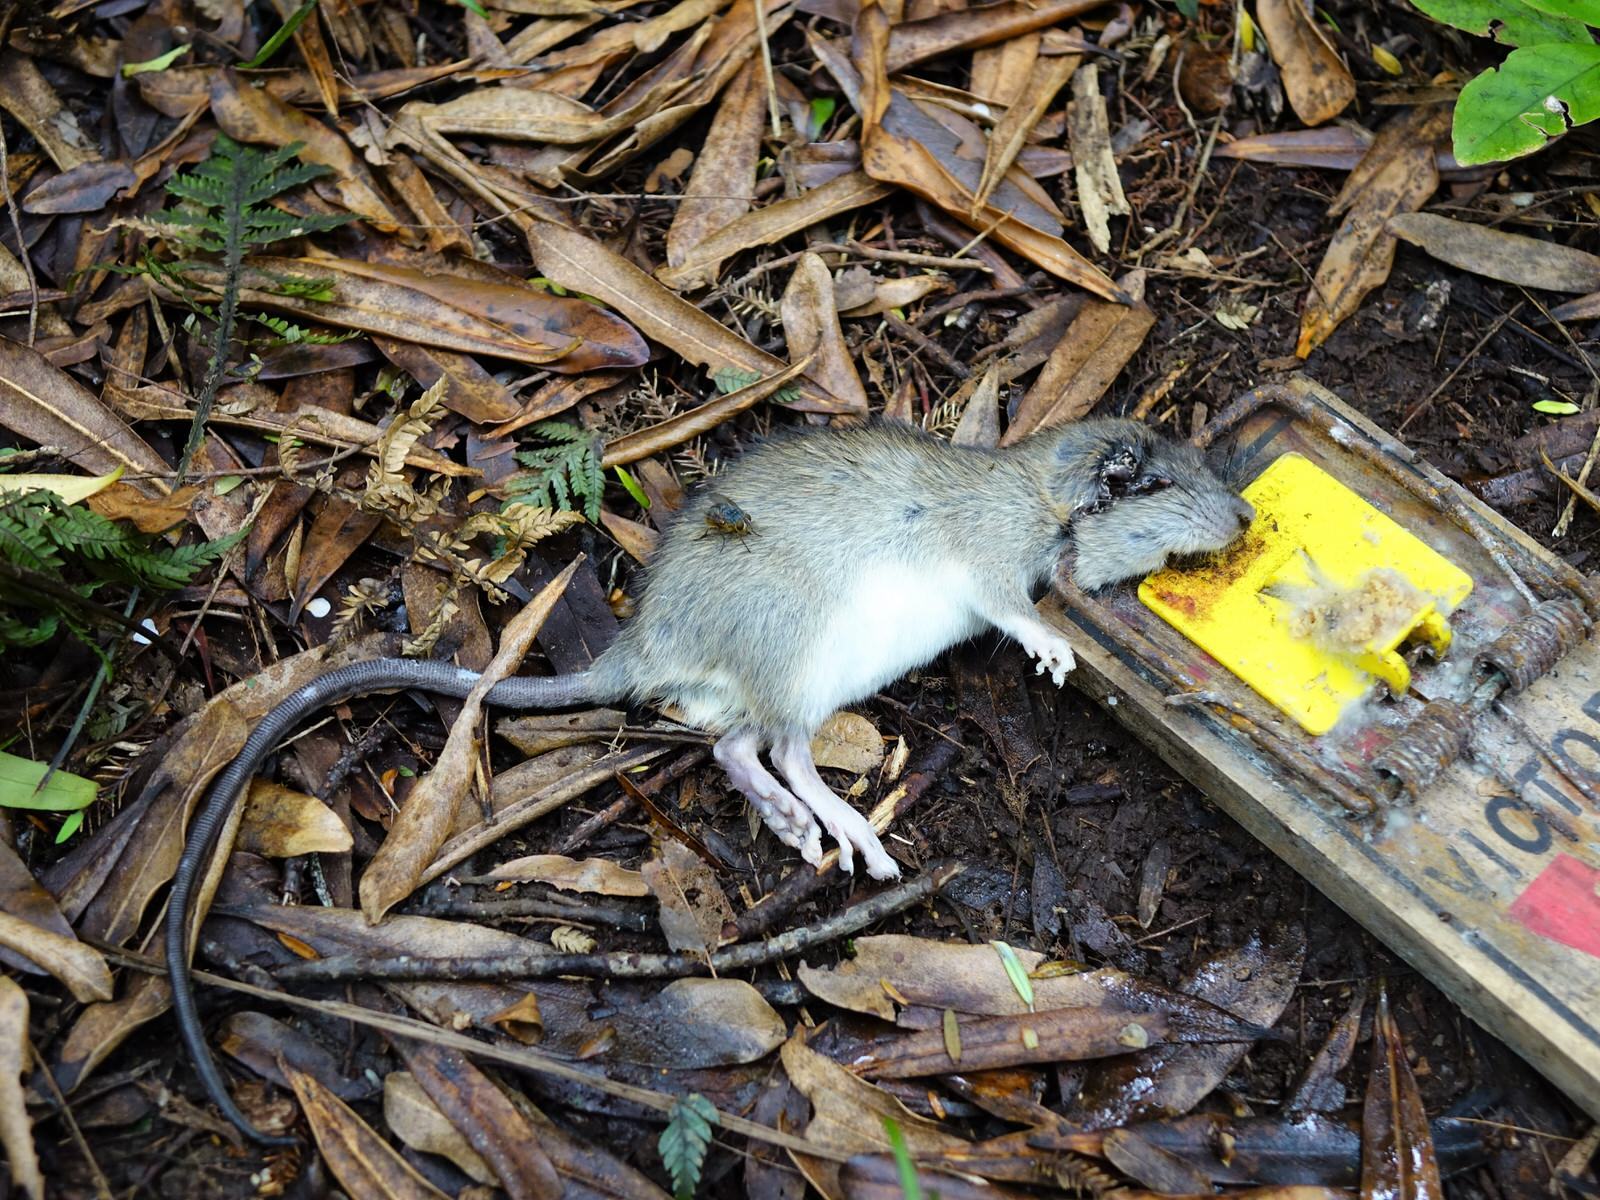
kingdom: Animalia
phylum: Chordata
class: Mammalia
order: Rodentia
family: Muridae
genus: Rattus
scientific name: Rattus rattus
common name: Black rat
